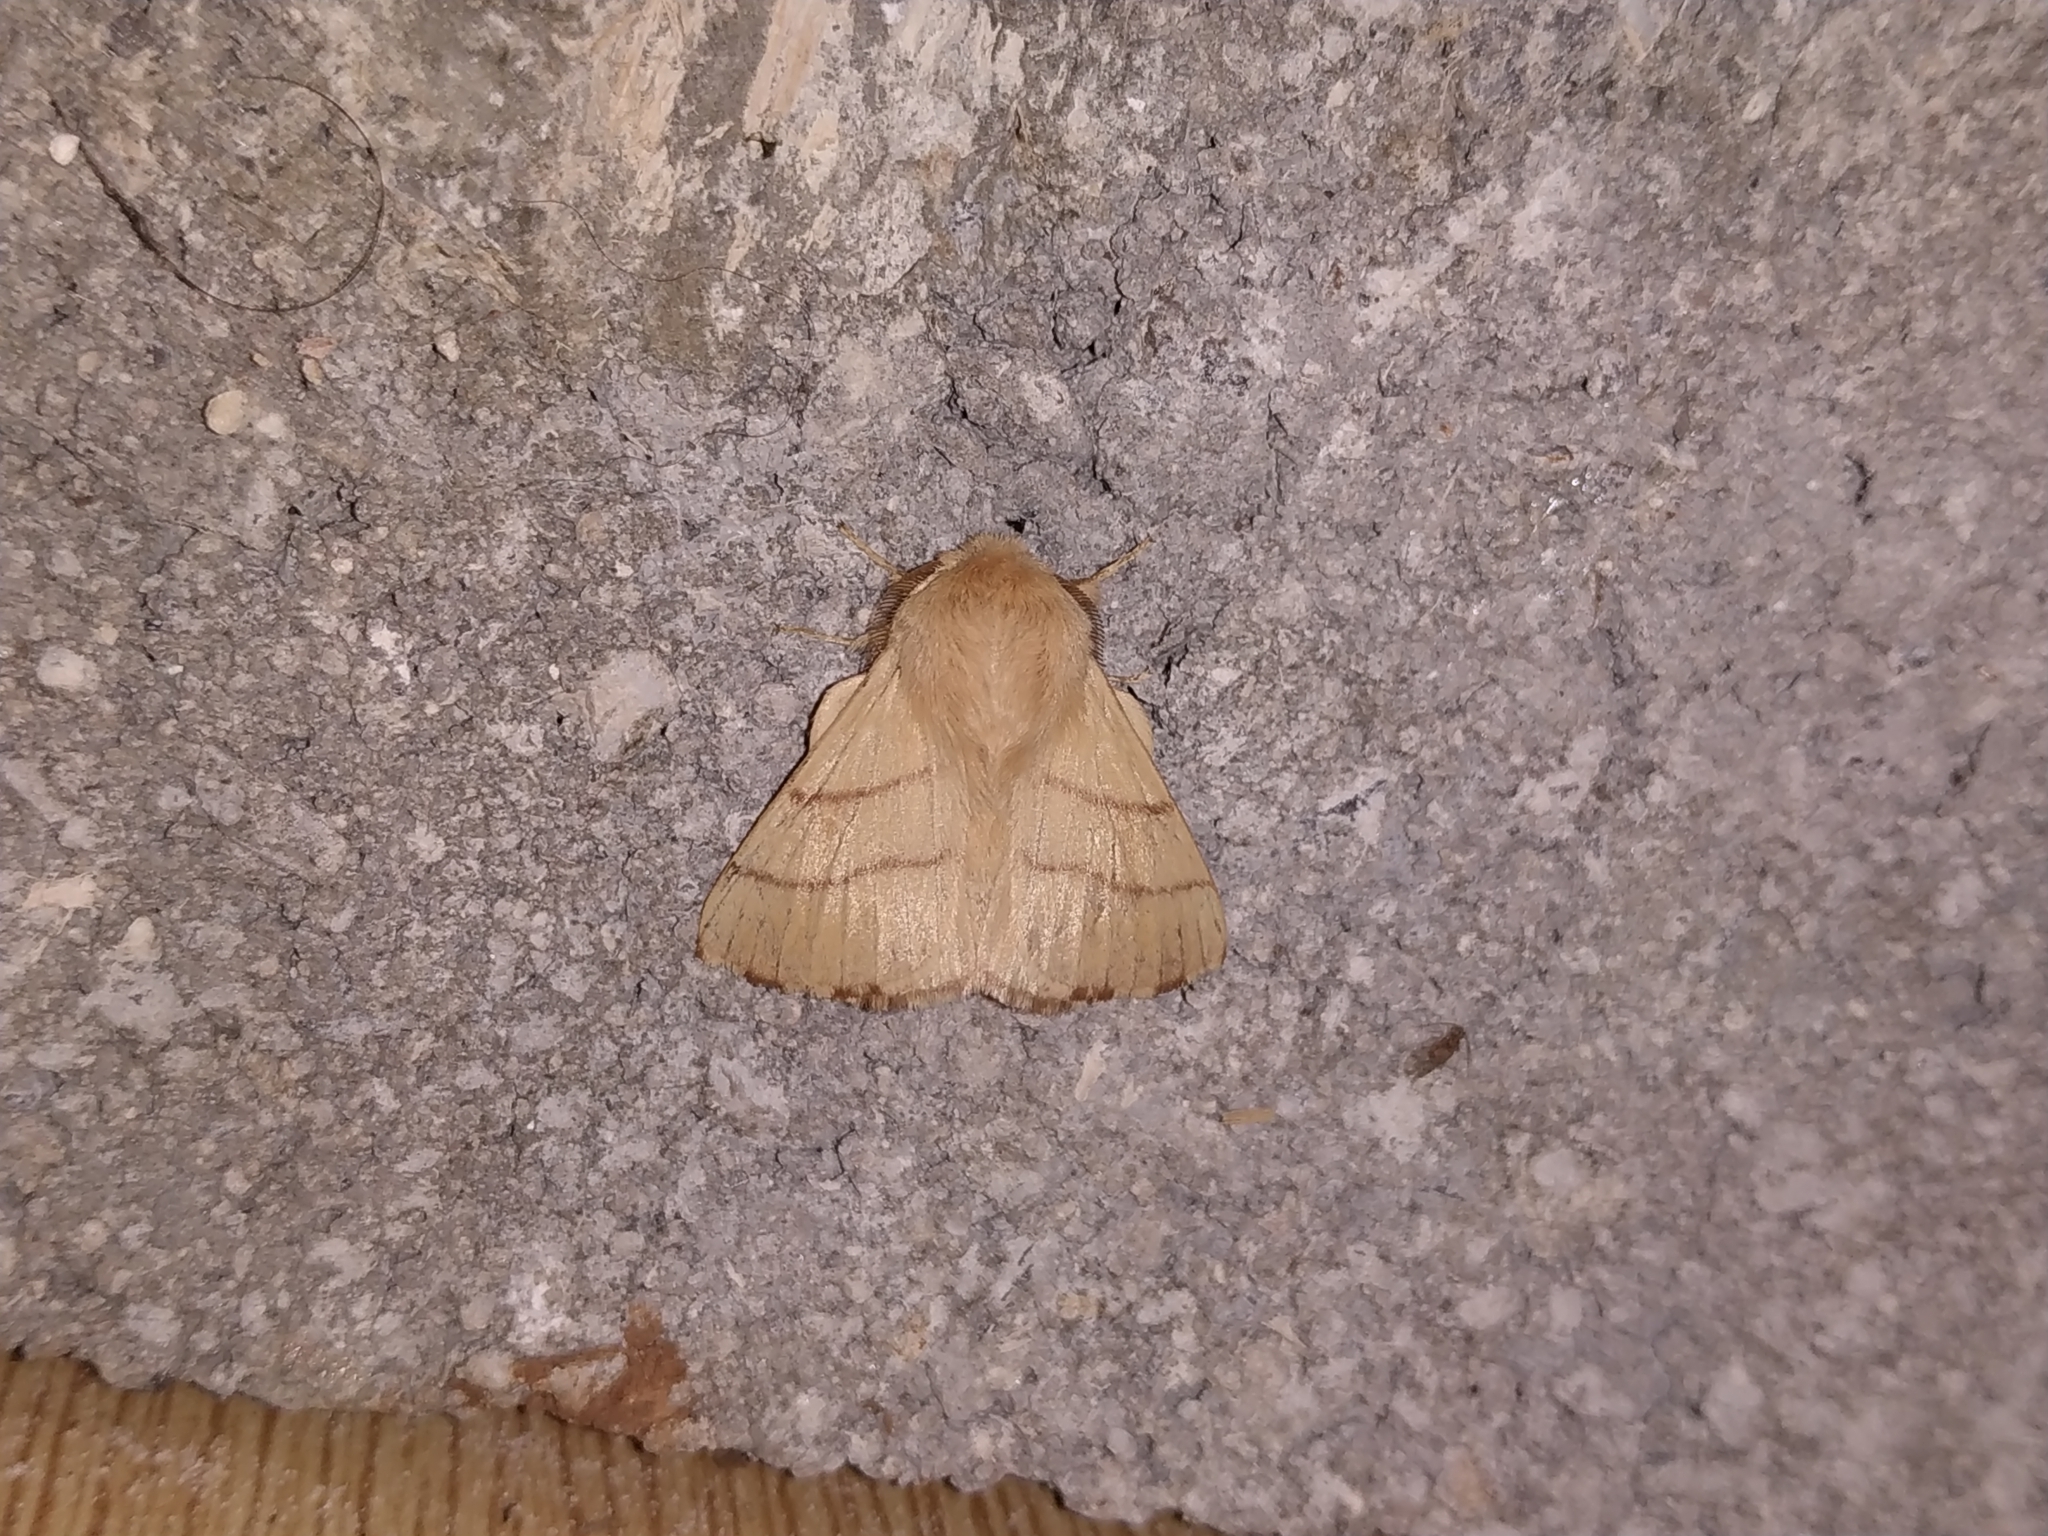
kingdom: Animalia
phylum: Arthropoda
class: Insecta
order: Lepidoptera
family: Lasiocampidae
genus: Malacosoma
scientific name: Malacosoma neustria
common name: The lackey
